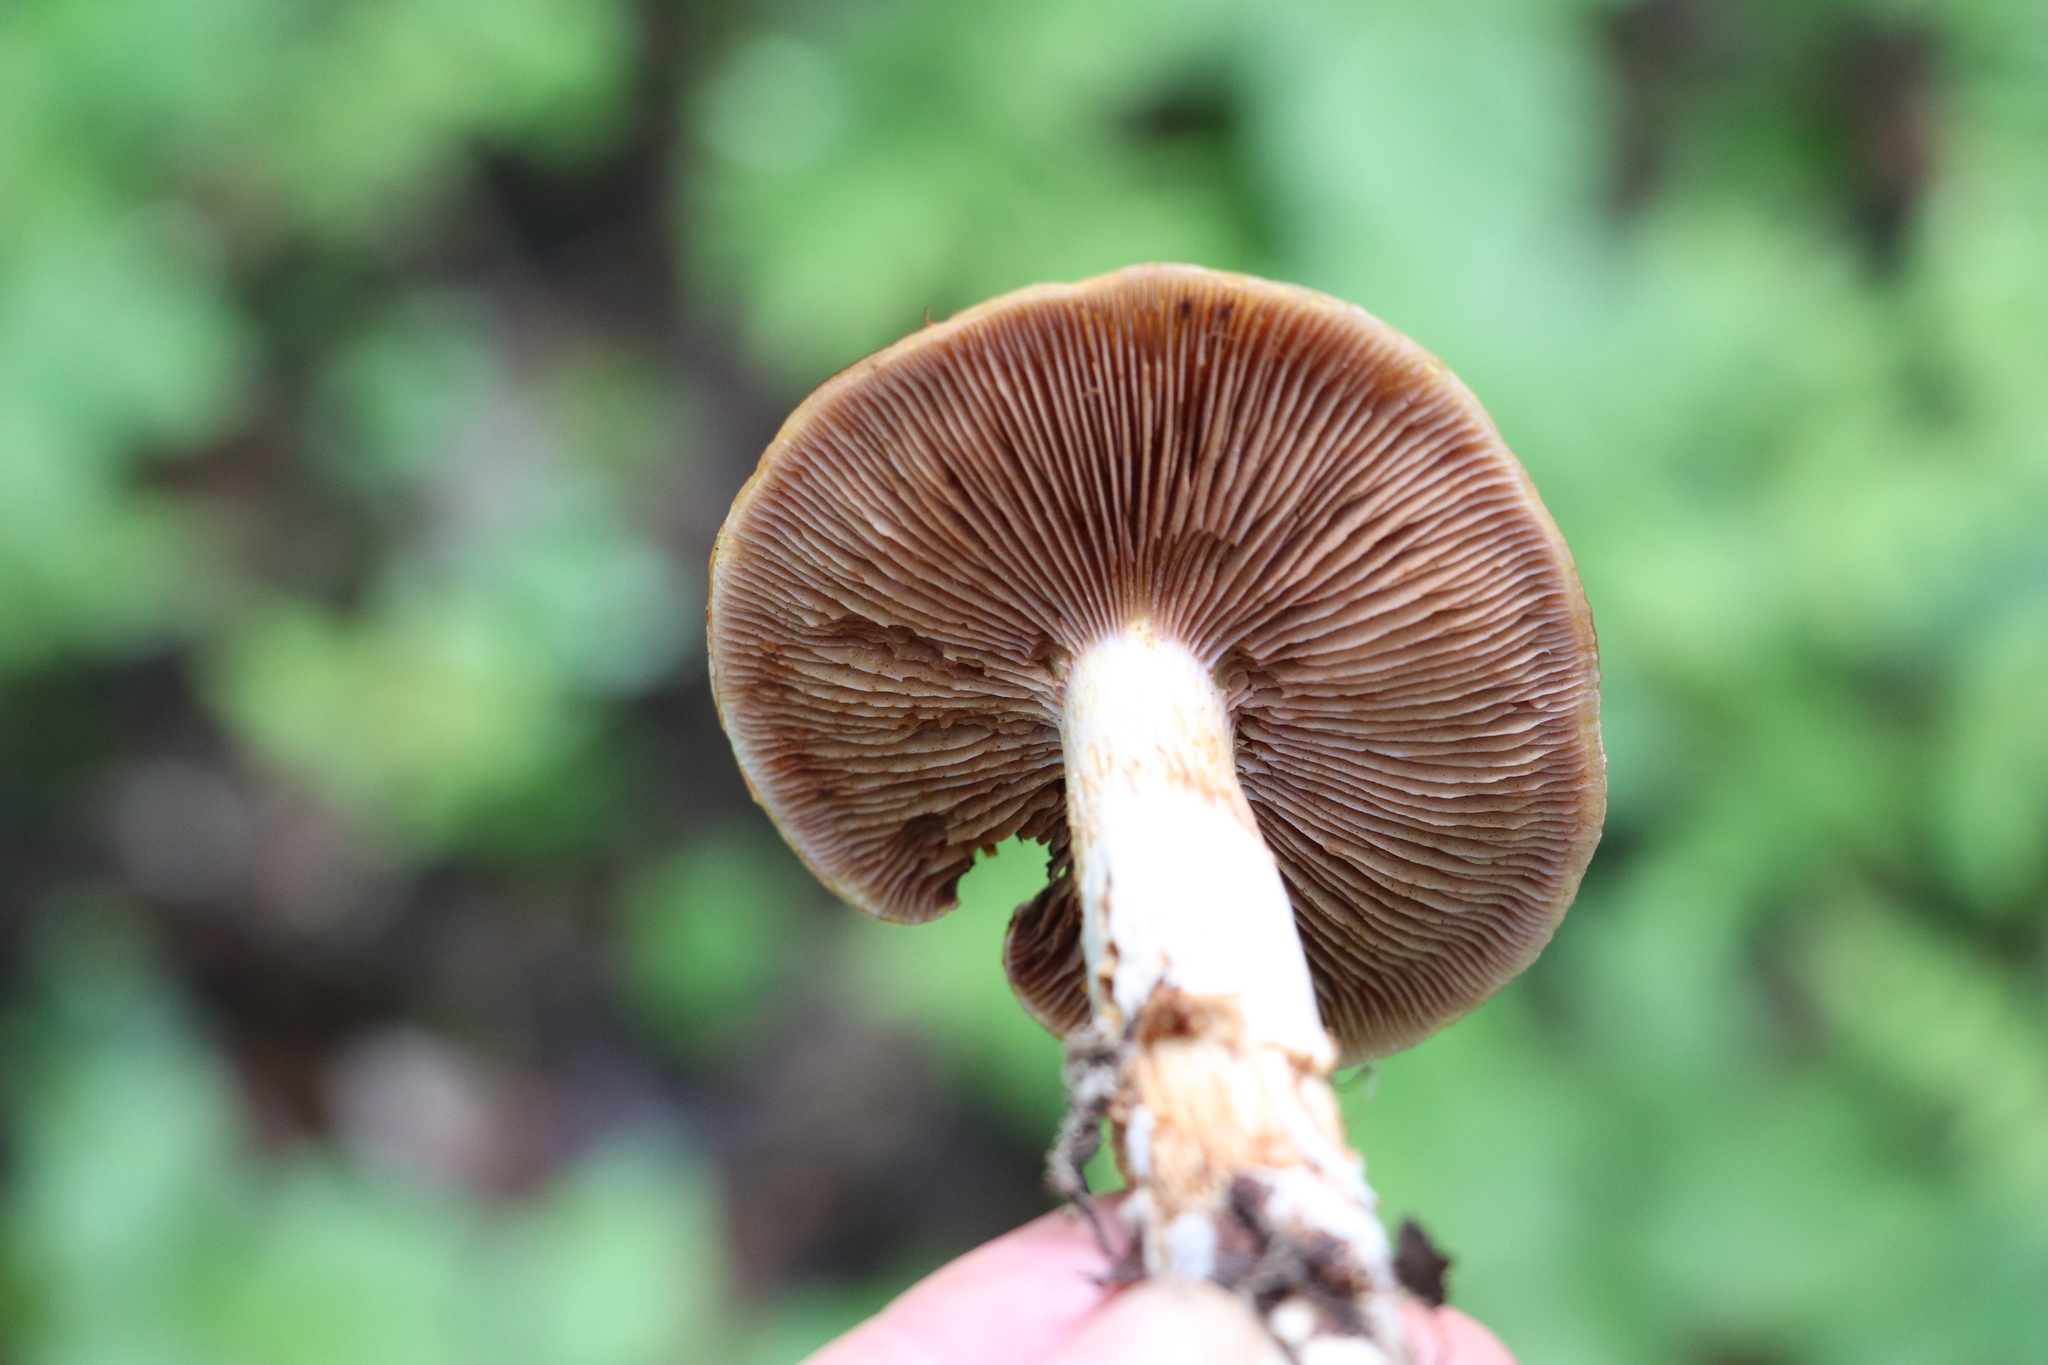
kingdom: Fungi
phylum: Basidiomycota
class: Agaricomycetes
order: Agaricales
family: Cortinariaceae
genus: Cortinarius
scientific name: Cortinarius trivialis
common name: Girdled webcap
